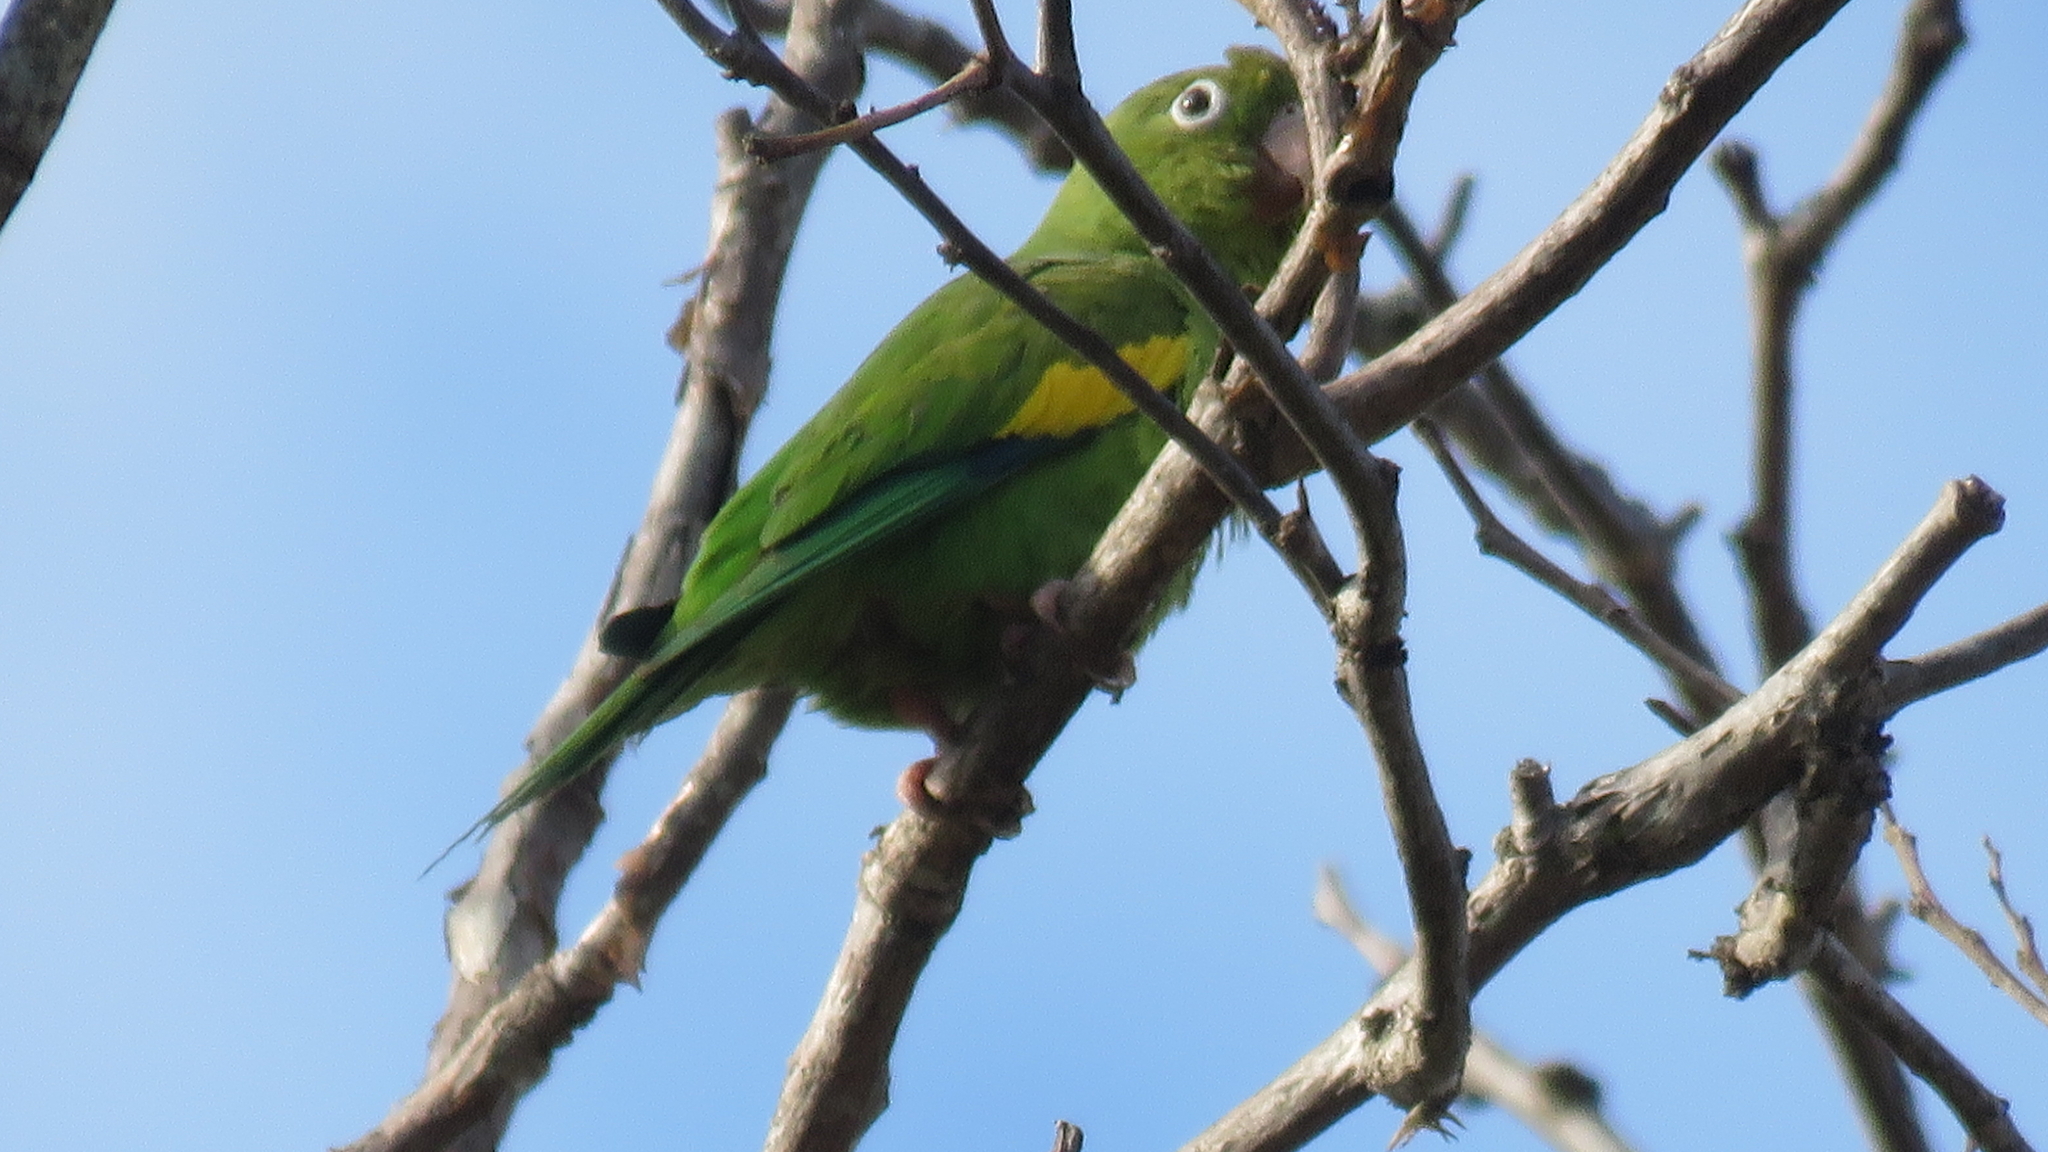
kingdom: Animalia
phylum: Chordata
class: Aves
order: Psittaciformes
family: Psittacidae
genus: Brotogeris
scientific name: Brotogeris chiriri
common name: Yellow-chevroned parakeet
